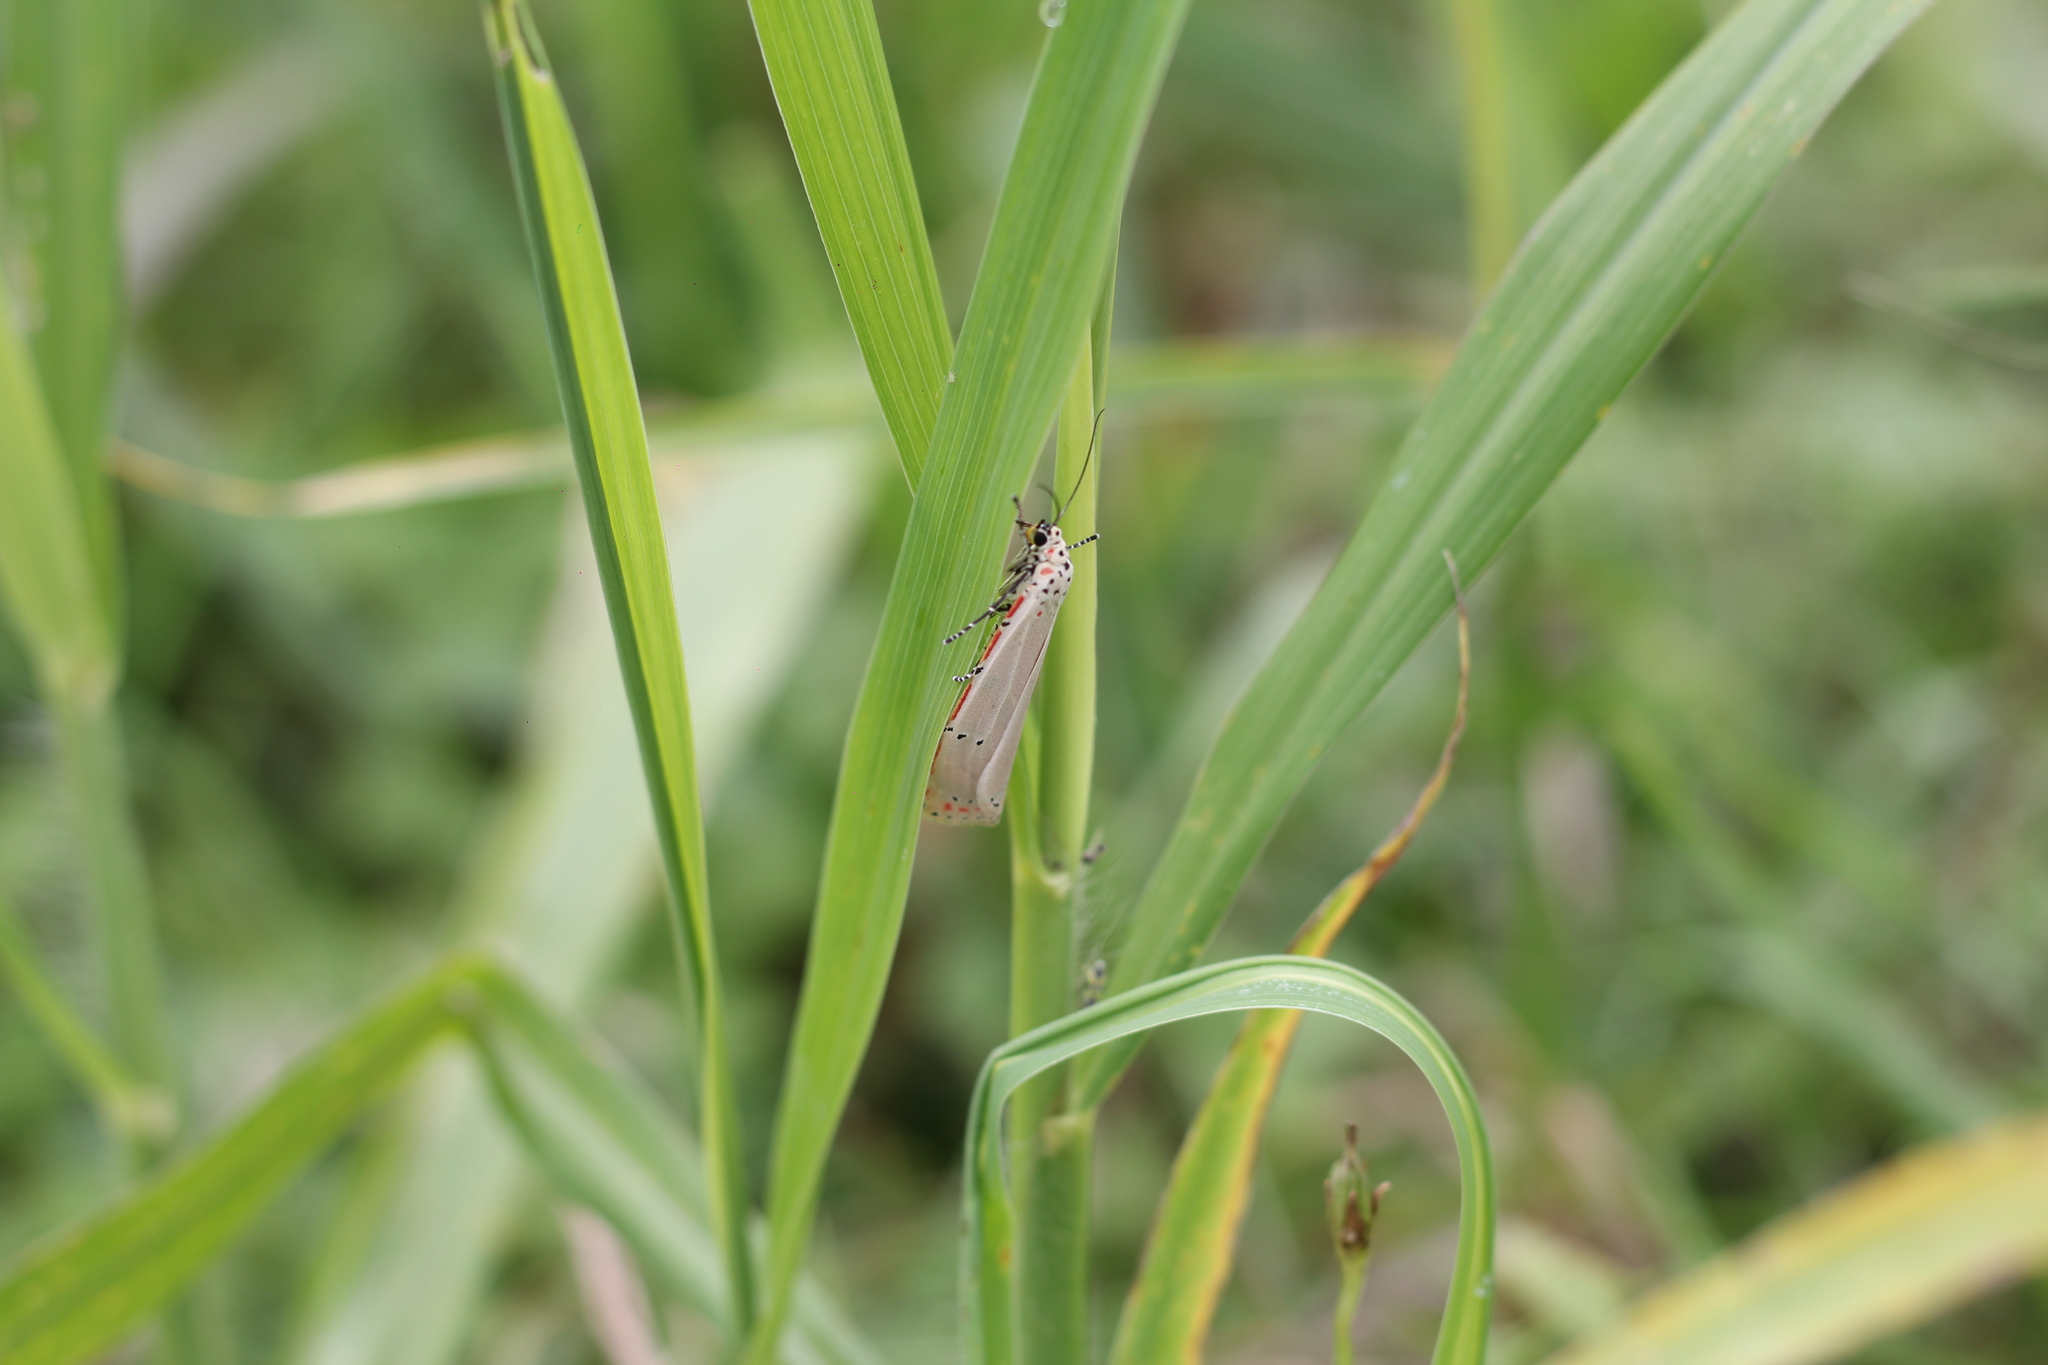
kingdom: Animalia
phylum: Arthropoda
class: Insecta
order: Lepidoptera
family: Erebidae
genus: Utetheisa
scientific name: Utetheisa ornatrix
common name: Beautiful utetheisa
